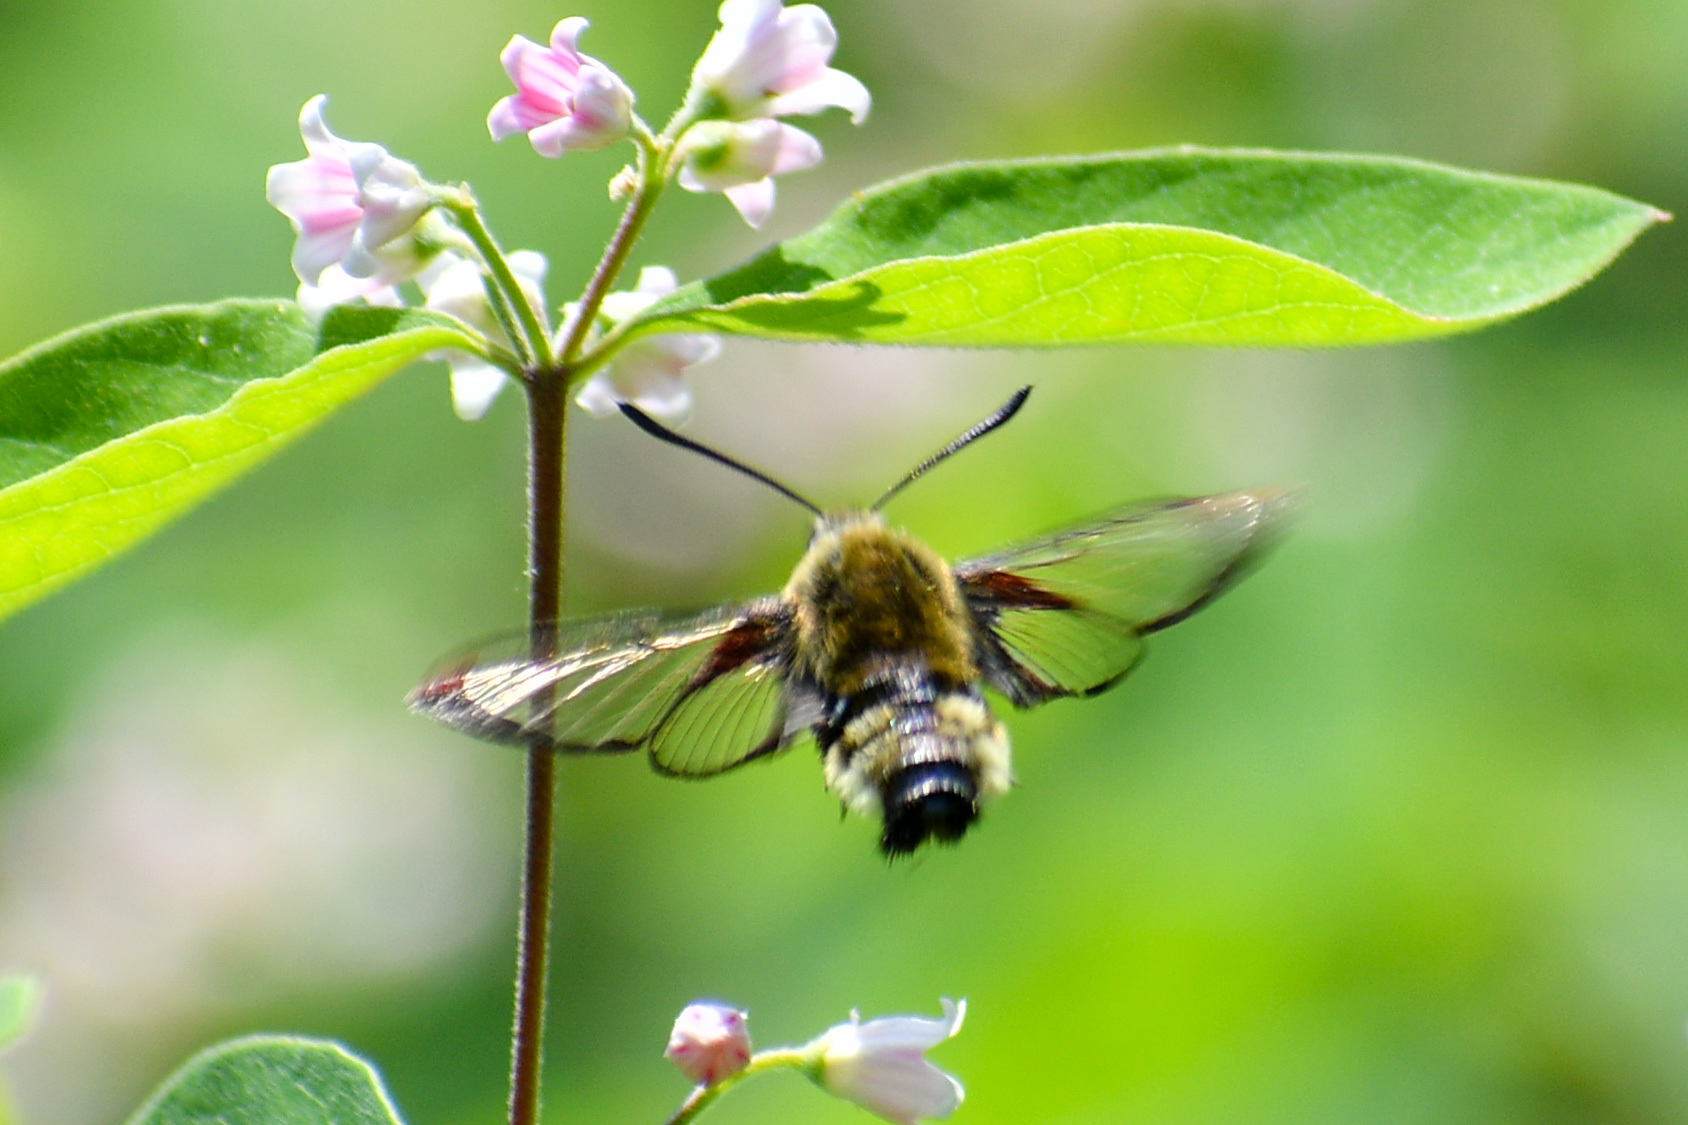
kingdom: Animalia
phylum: Arthropoda
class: Insecta
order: Lepidoptera
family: Sphingidae
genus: Hemaris
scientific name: Hemaris thetis
